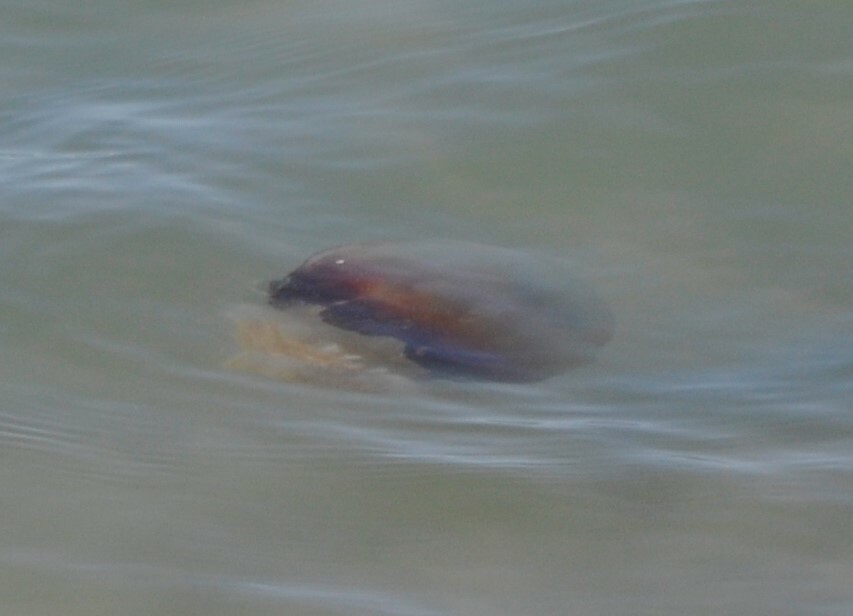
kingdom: Animalia
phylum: Cnidaria
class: Scyphozoa
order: Rhizostomeae
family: Stomolophidae
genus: Stomolophus
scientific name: Stomolophus meleagris
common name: Cabbagehead
